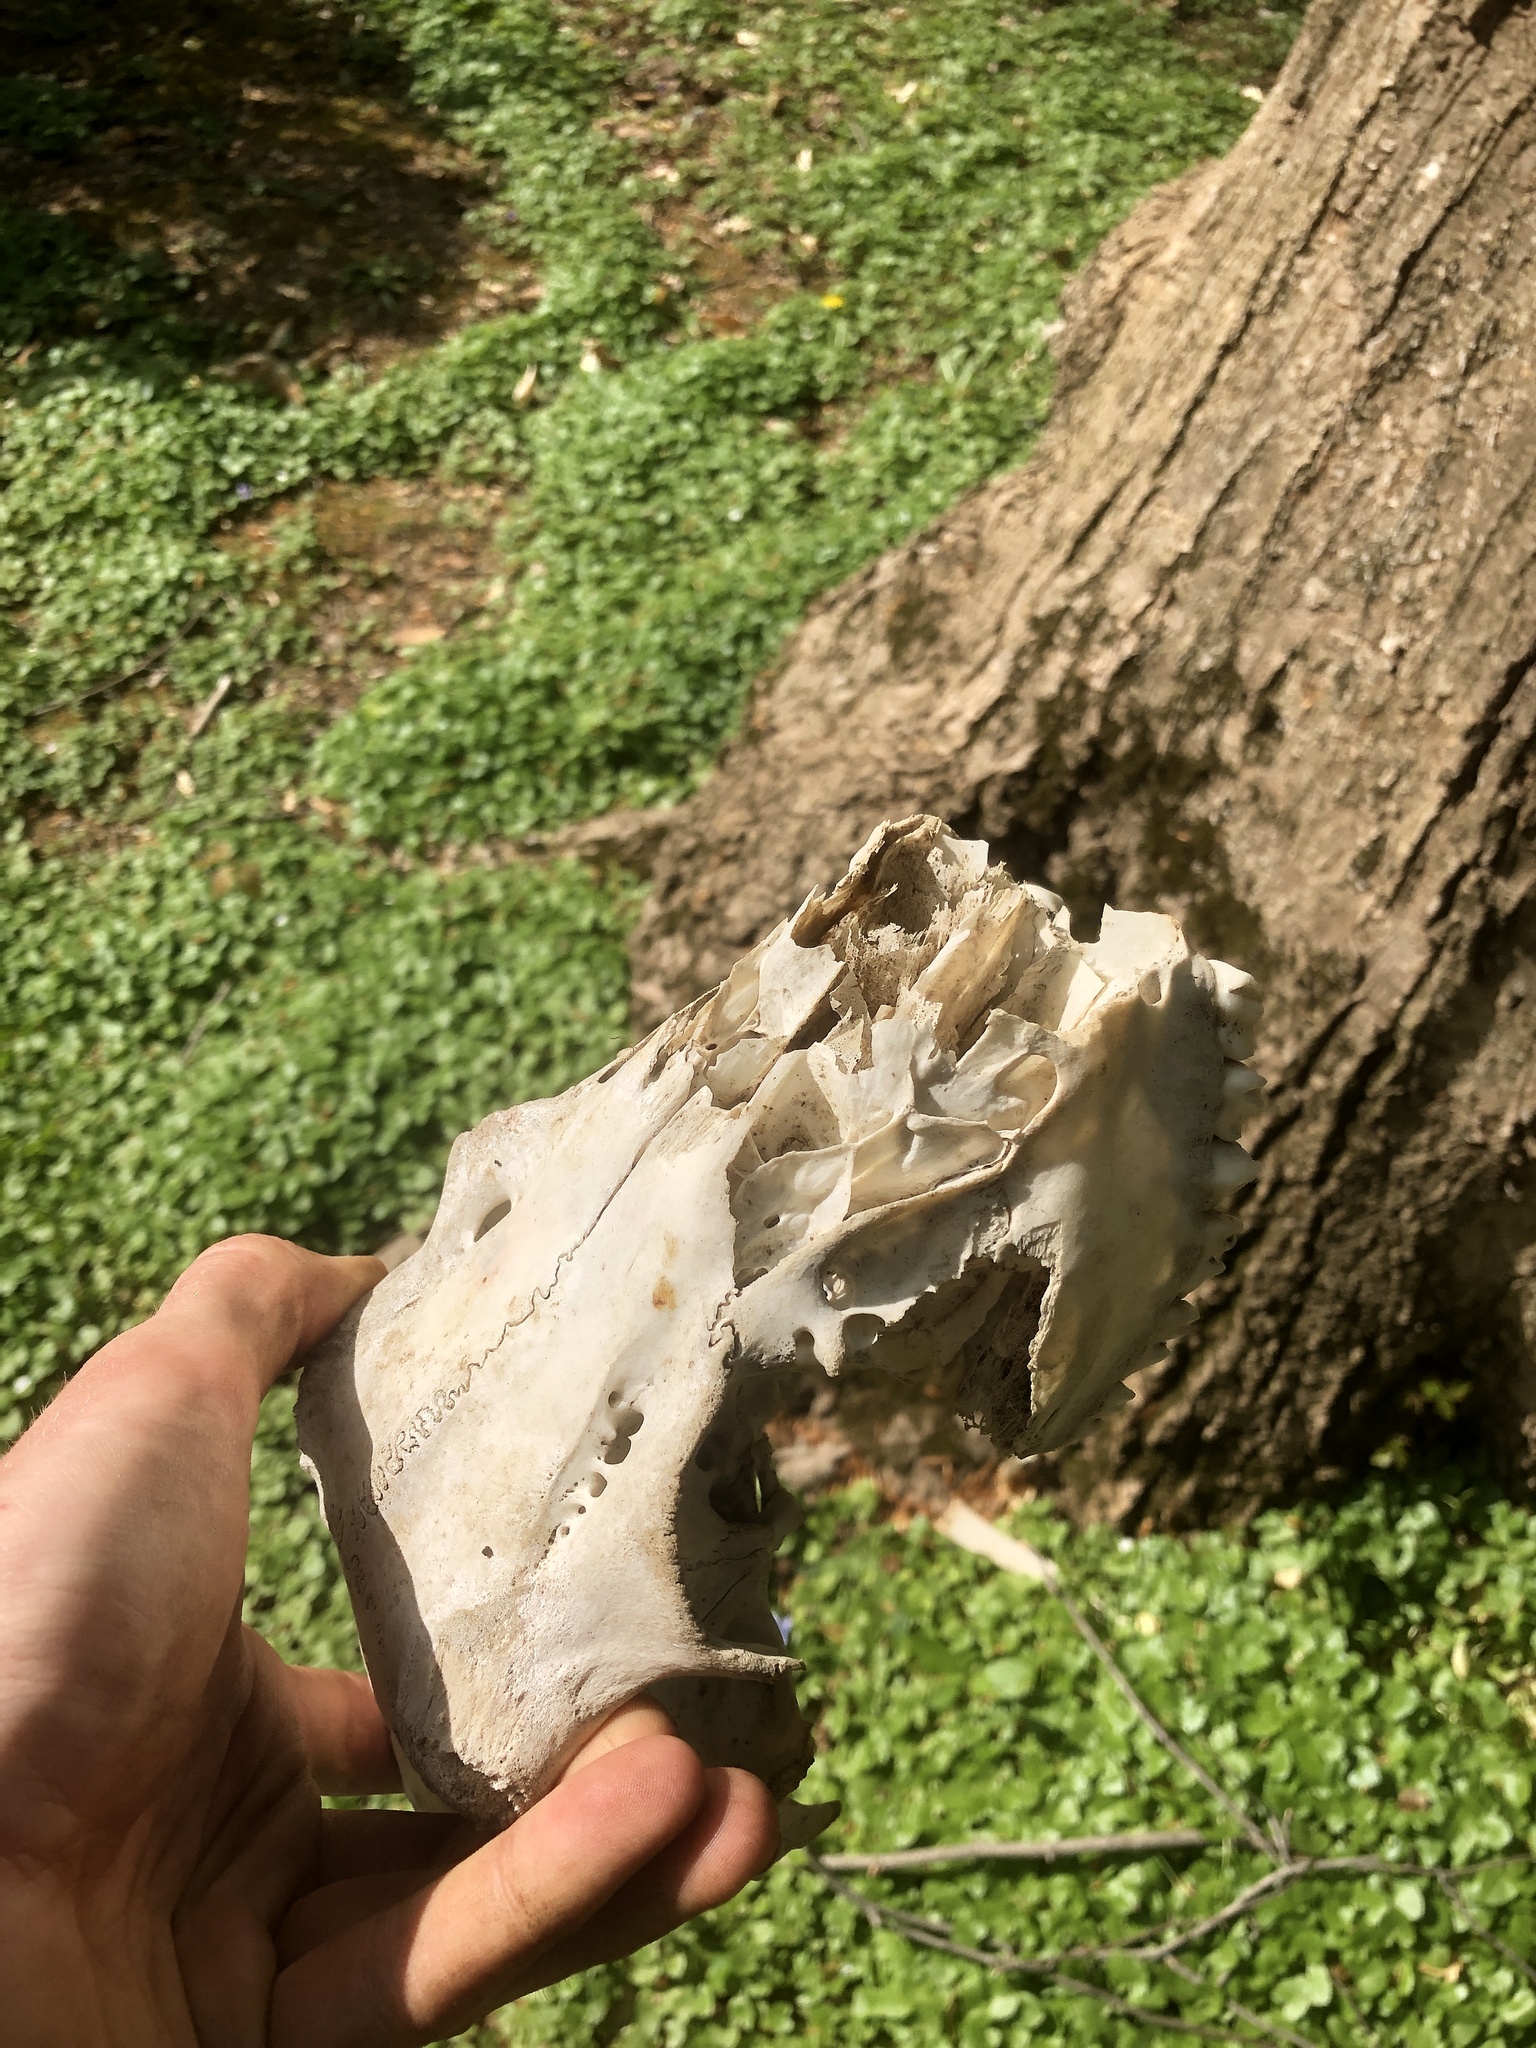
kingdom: Animalia
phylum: Chordata
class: Mammalia
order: Artiodactyla
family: Cervidae
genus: Odocoileus
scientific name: Odocoileus virginianus
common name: White-tailed deer
